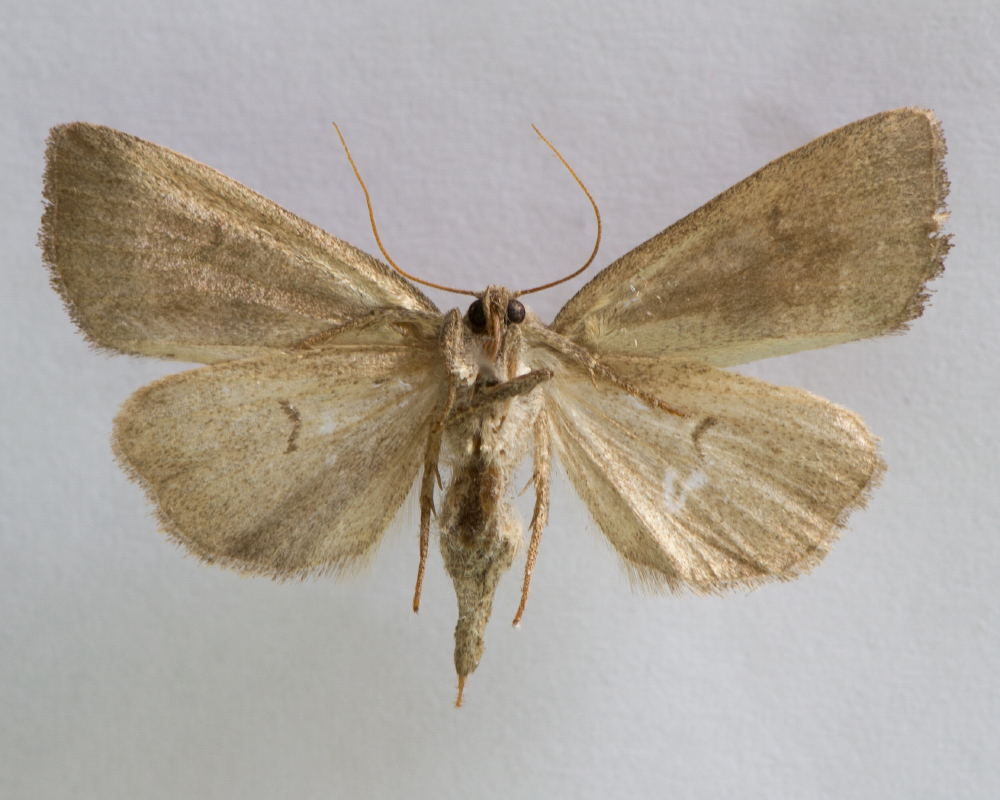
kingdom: Animalia
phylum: Arthropoda
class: Insecta
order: Lepidoptera
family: Noctuidae
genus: Ipimorpha
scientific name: Ipimorpha contusa
